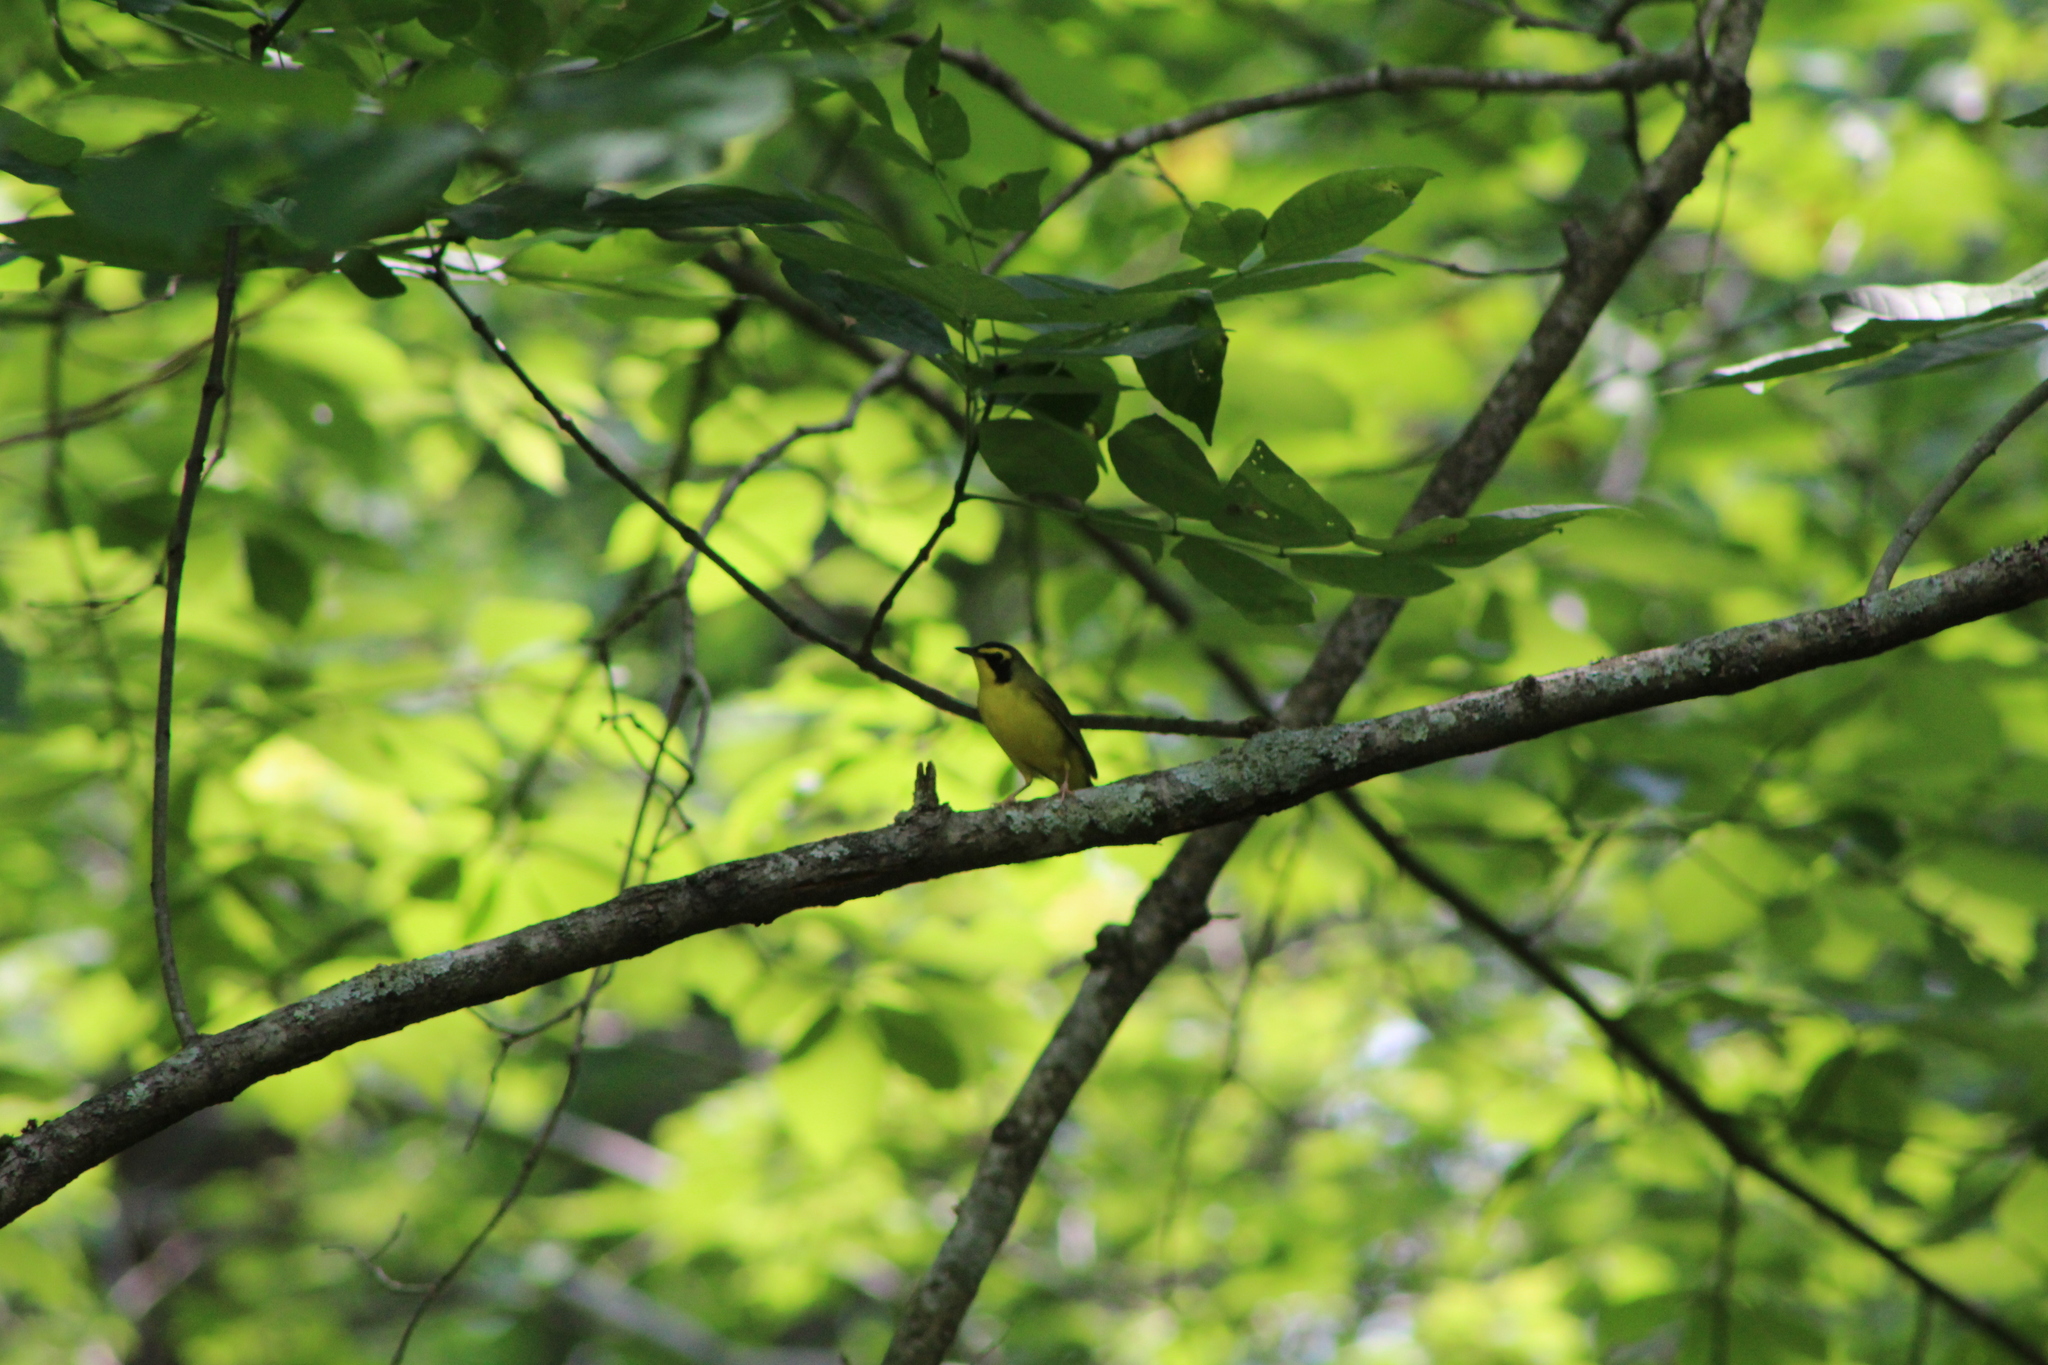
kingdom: Animalia
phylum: Chordata
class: Aves
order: Passeriformes
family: Parulidae
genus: Geothlypis
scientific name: Geothlypis formosa
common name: Kentucky warbler
